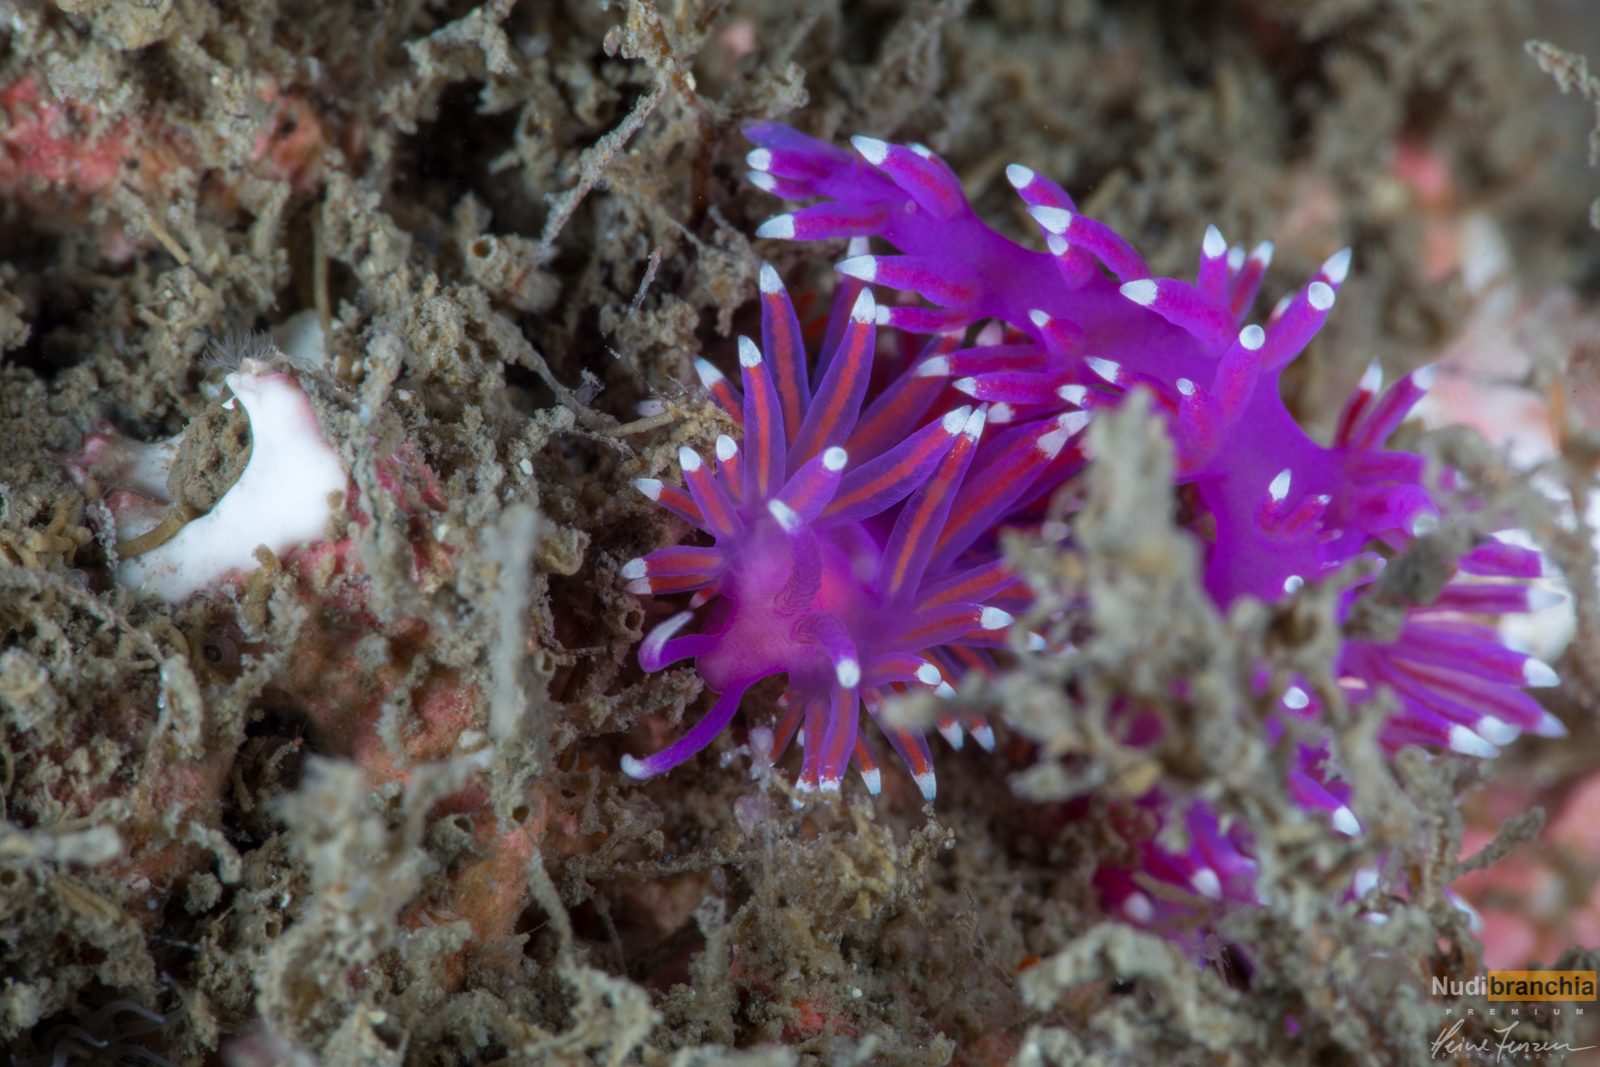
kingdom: Animalia
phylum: Mollusca
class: Gastropoda
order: Nudibranchia
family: Flabellinidae
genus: Edmundsella
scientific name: Edmundsella pedata
